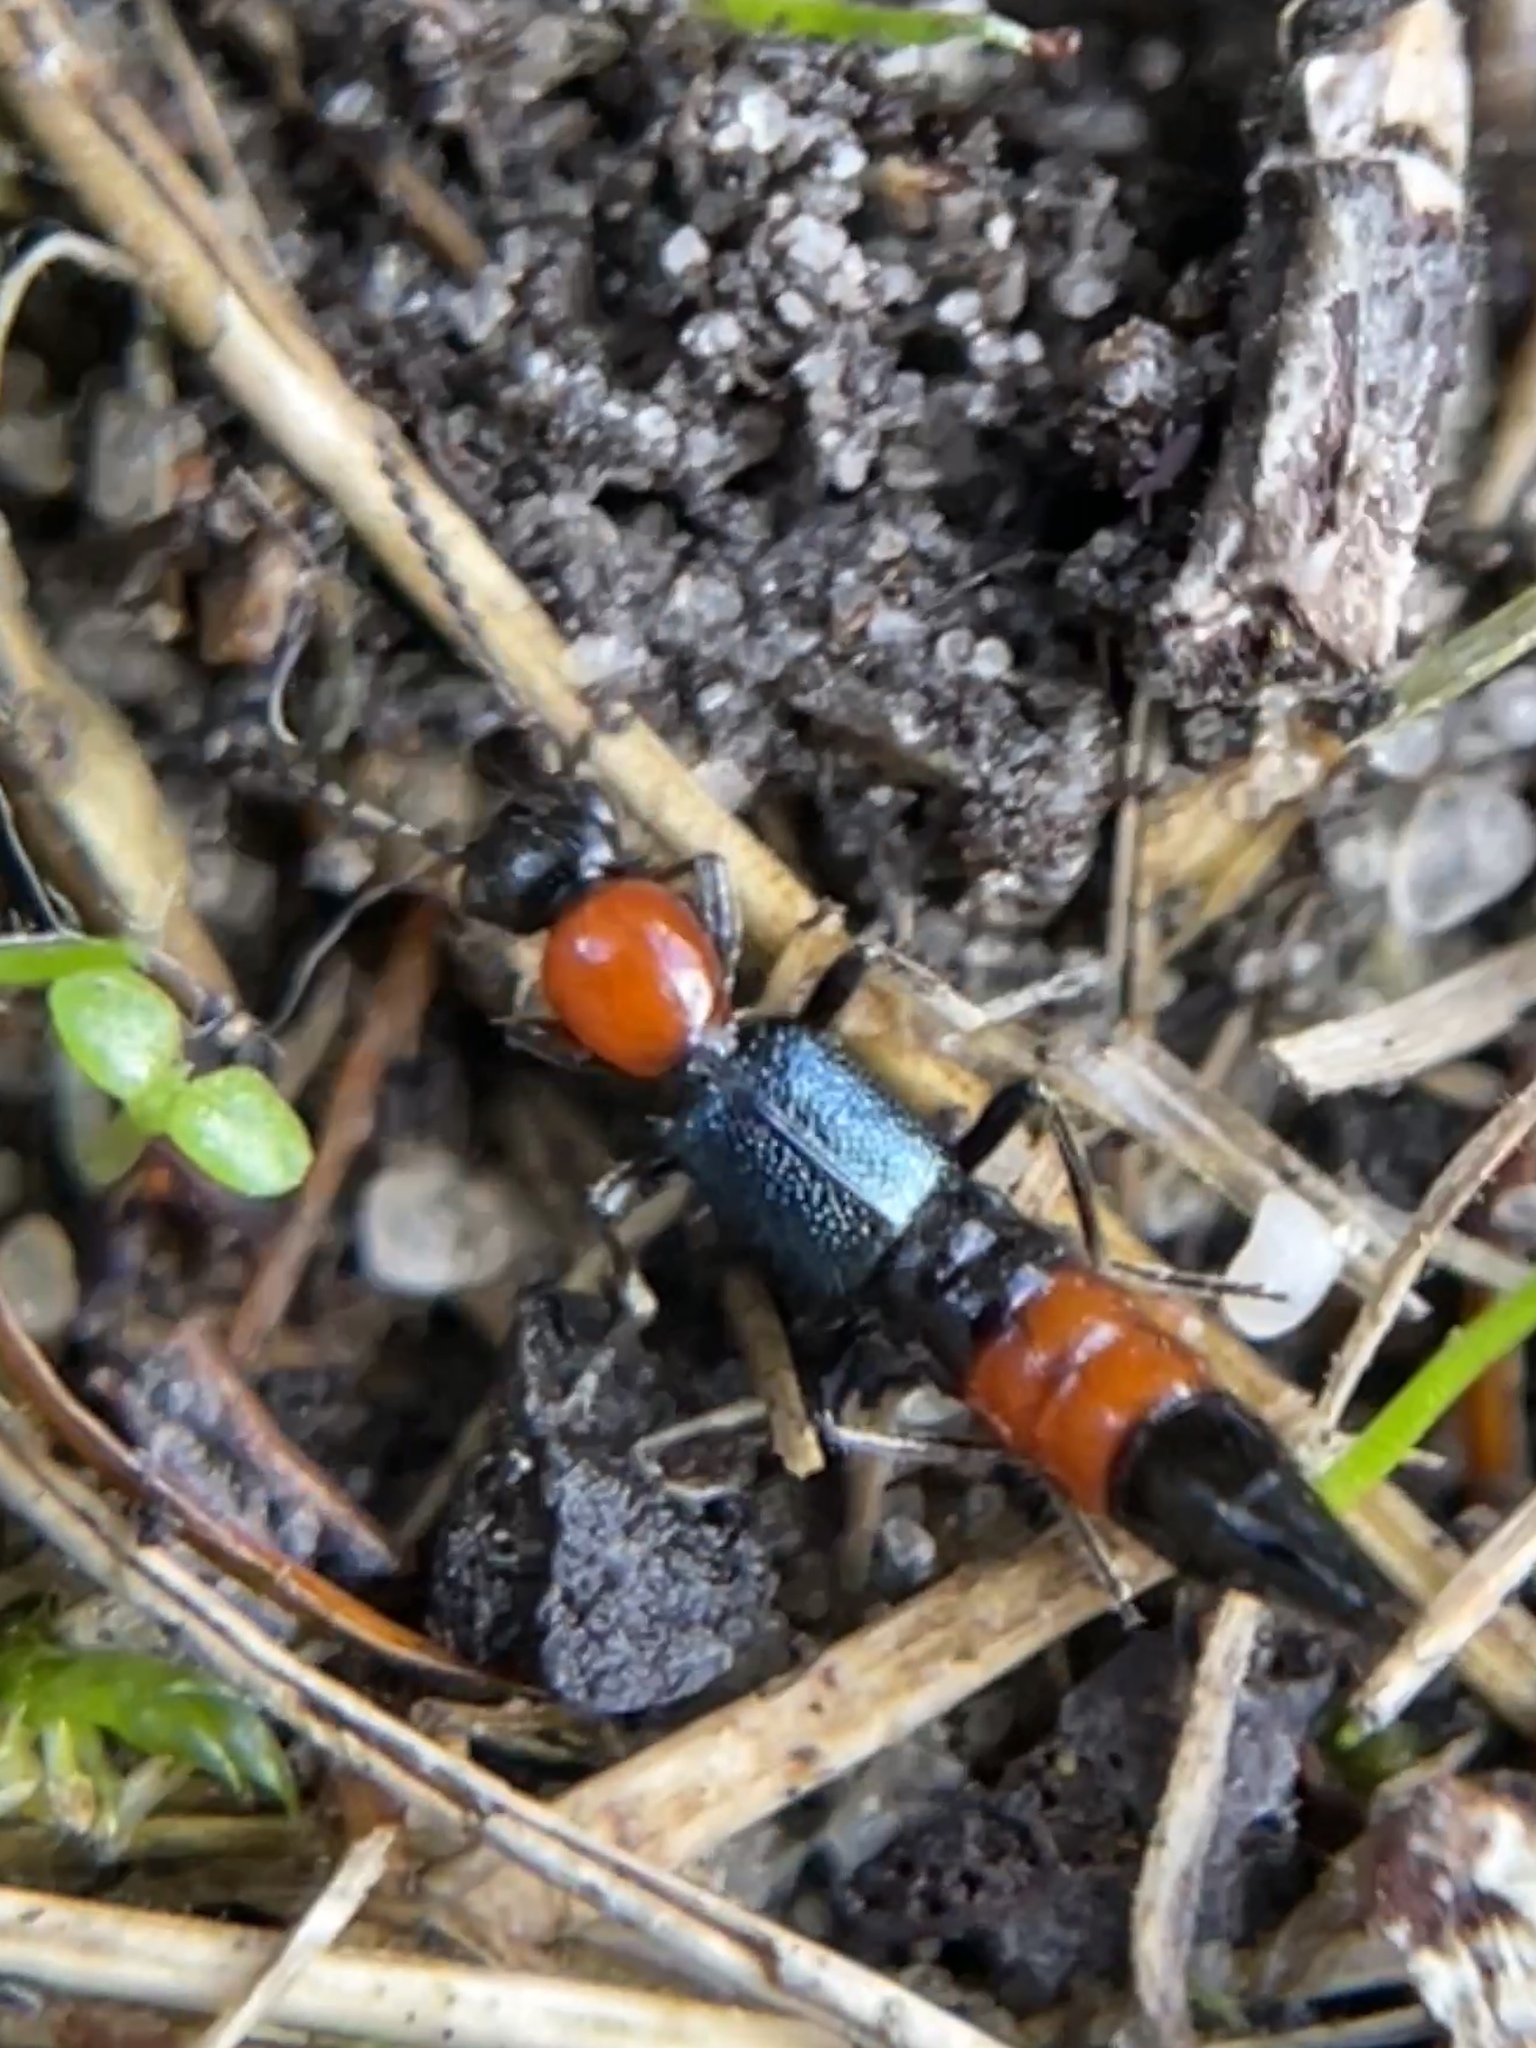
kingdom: Animalia
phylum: Arthropoda
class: Insecta
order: Coleoptera
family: Staphylinidae
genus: Paederus
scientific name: Paederus cruenticollis
